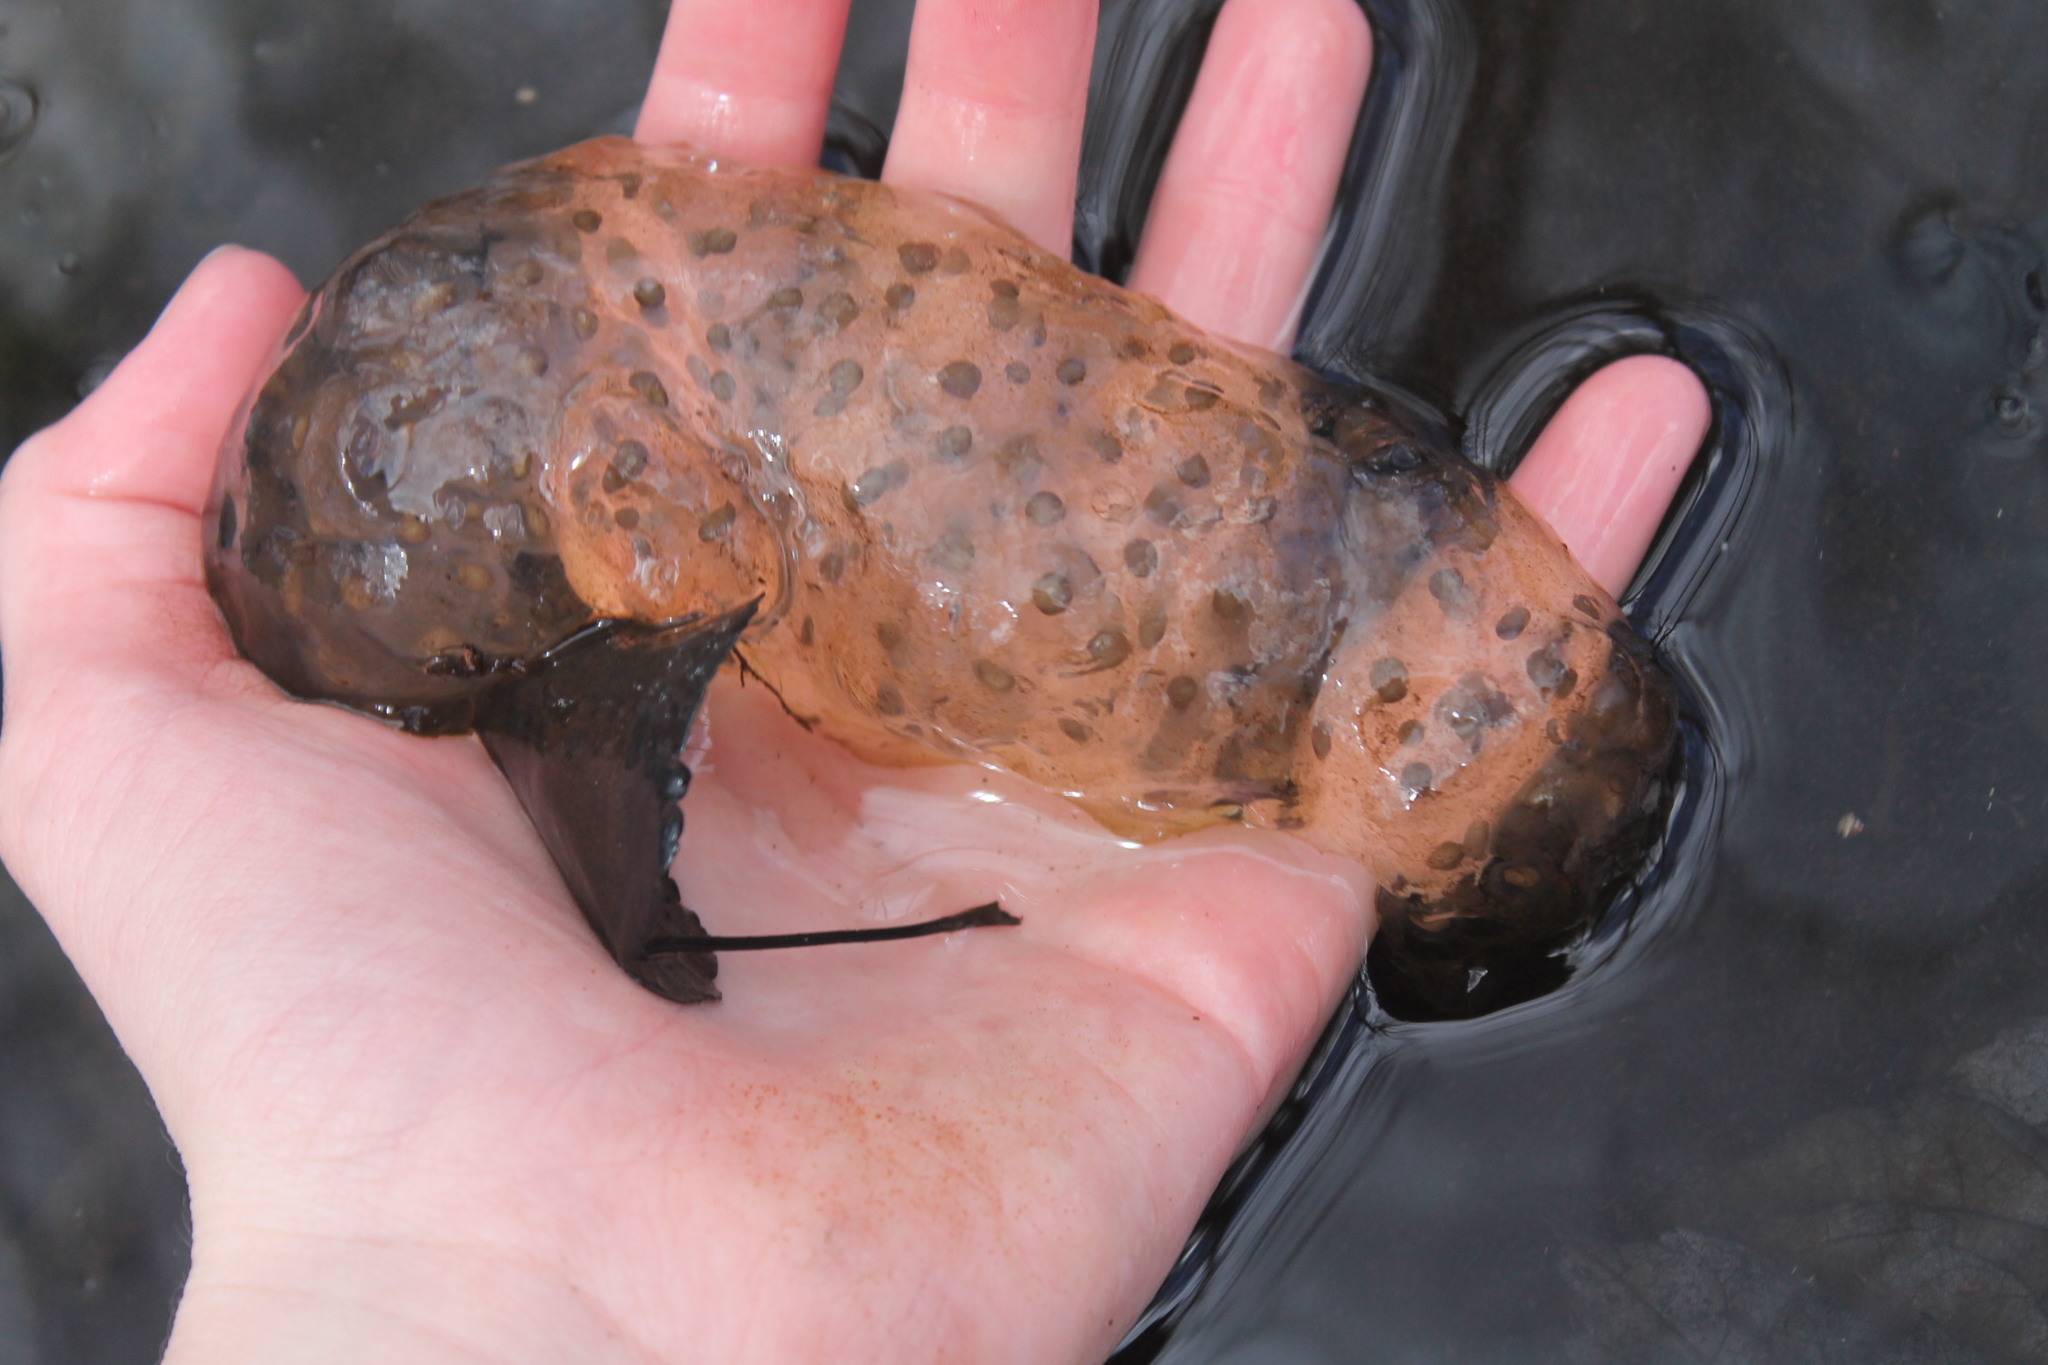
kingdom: Animalia
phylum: Chordata
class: Amphibia
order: Caudata
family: Ambystomatidae
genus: Ambystoma
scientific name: Ambystoma maculatum
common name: Spotted salamander
